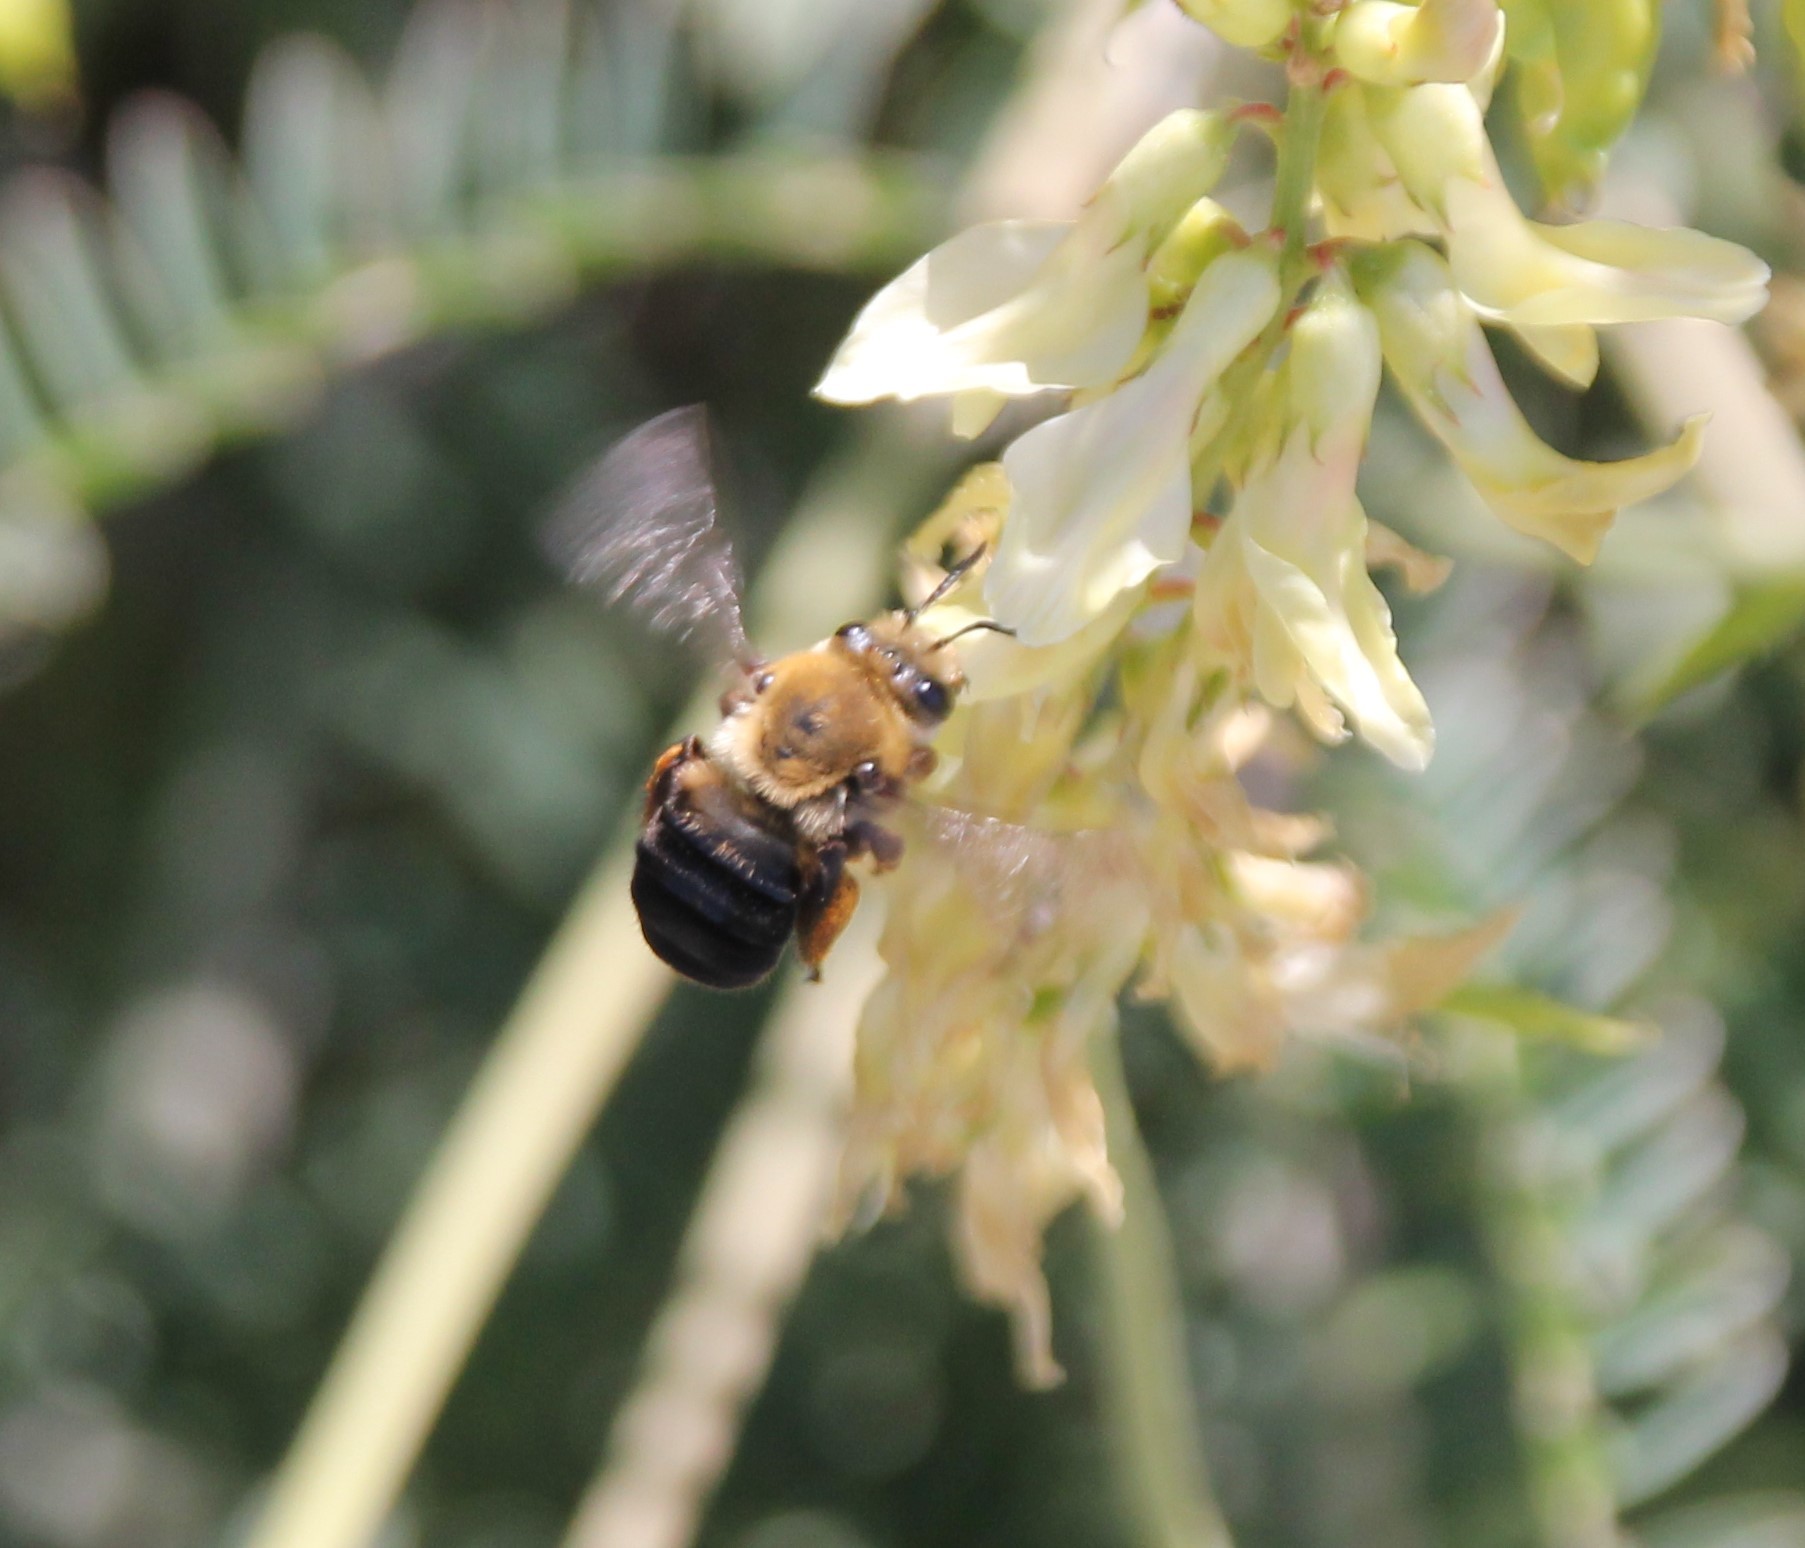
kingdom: Animalia
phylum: Arthropoda
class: Insecta
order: Hymenoptera
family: Apidae
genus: Eucera
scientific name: Eucera frater
